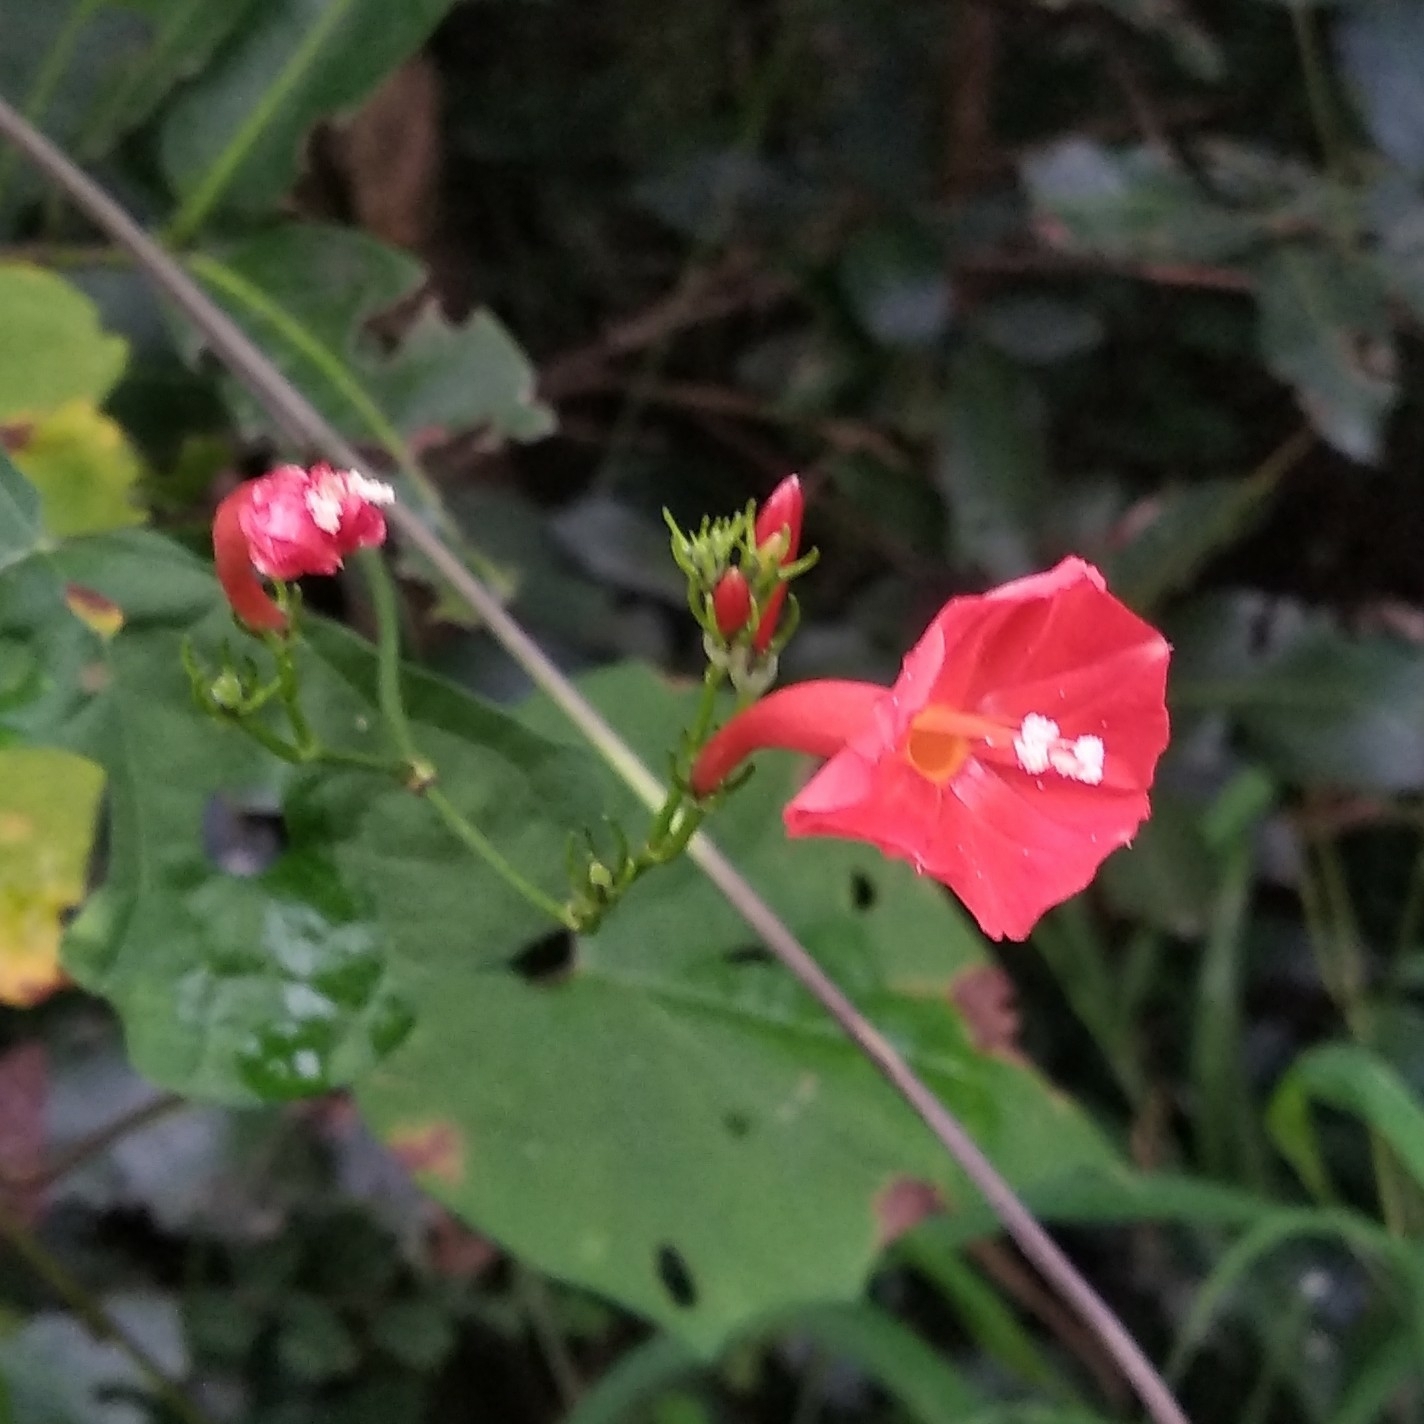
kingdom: Plantae
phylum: Tracheophyta
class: Magnoliopsida
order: Solanales
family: Convolvulaceae
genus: Ipomoea
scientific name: Ipomoea hederifolia
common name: Ivy-leaf morning-glory
